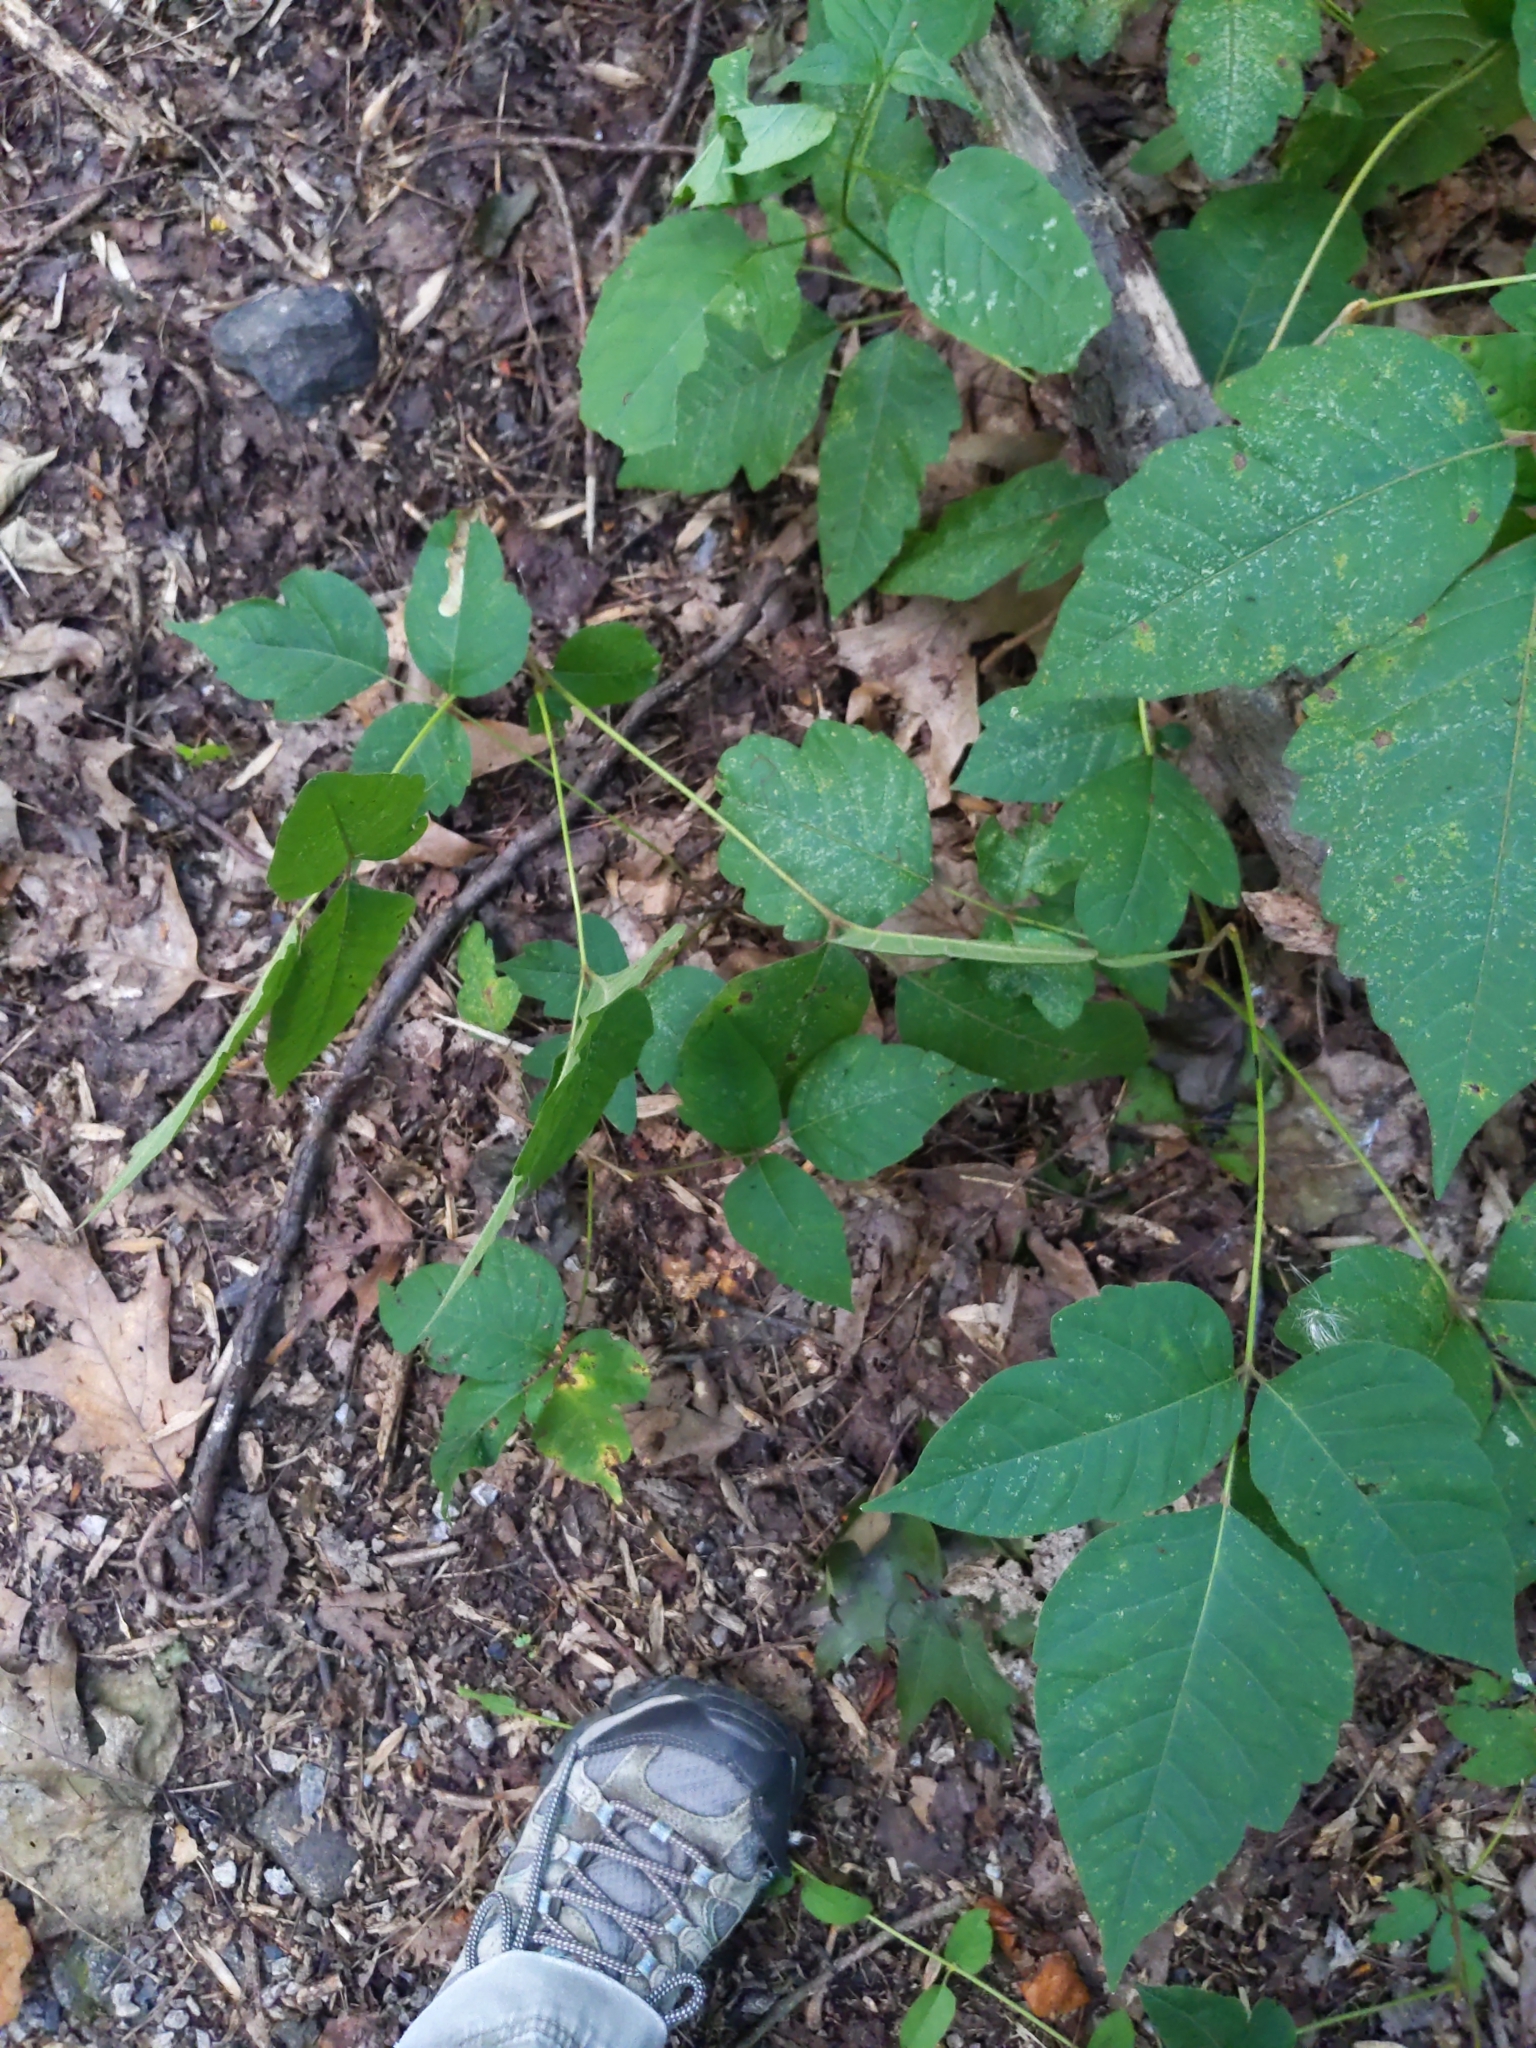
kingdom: Plantae
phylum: Tracheophyta
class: Magnoliopsida
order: Sapindales
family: Anacardiaceae
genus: Toxicodendron
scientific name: Toxicodendron radicans
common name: Poison ivy
